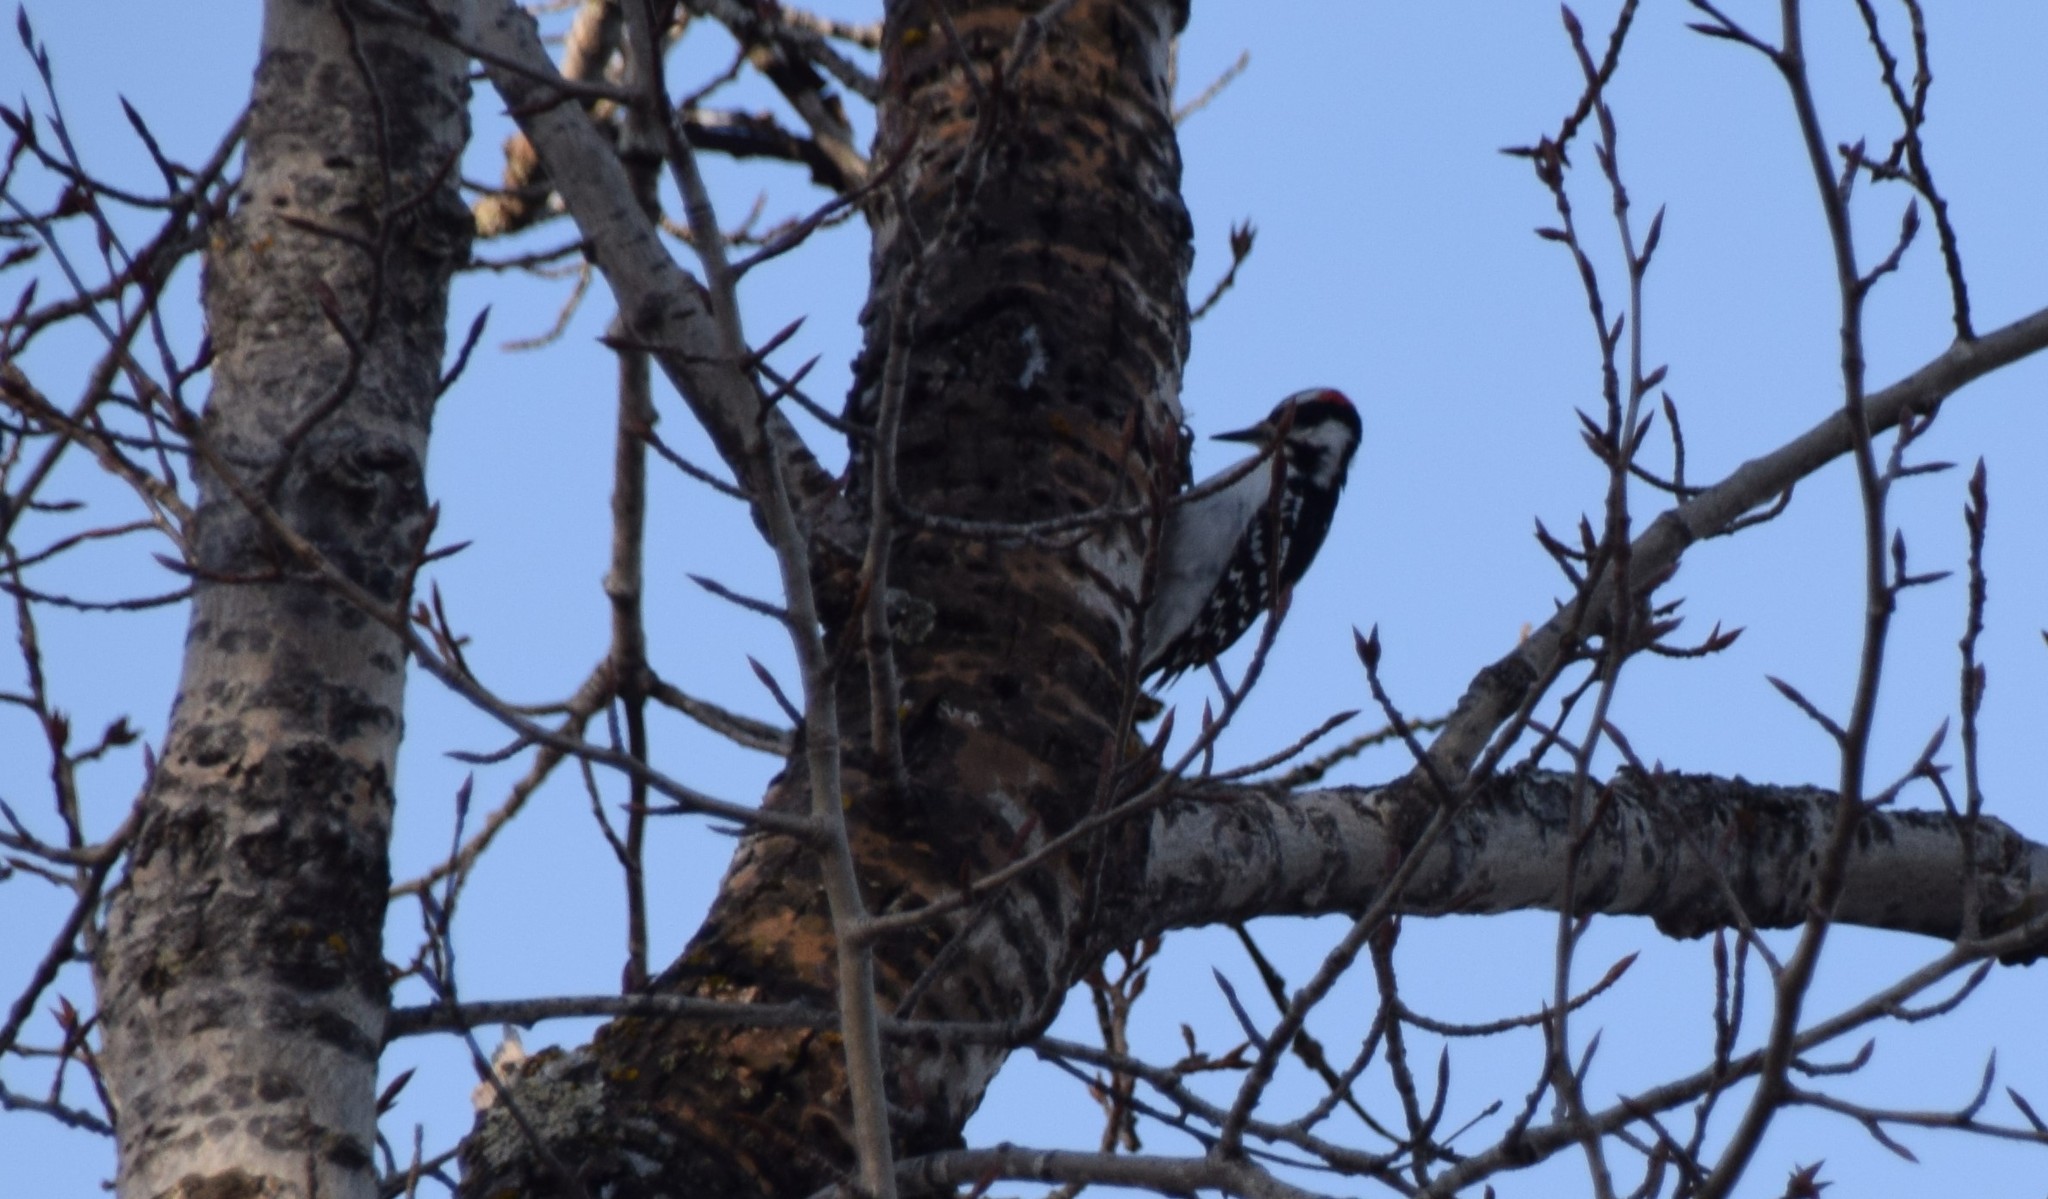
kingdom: Animalia
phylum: Chordata
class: Aves
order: Piciformes
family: Picidae
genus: Leuconotopicus
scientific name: Leuconotopicus villosus
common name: Hairy woodpecker
